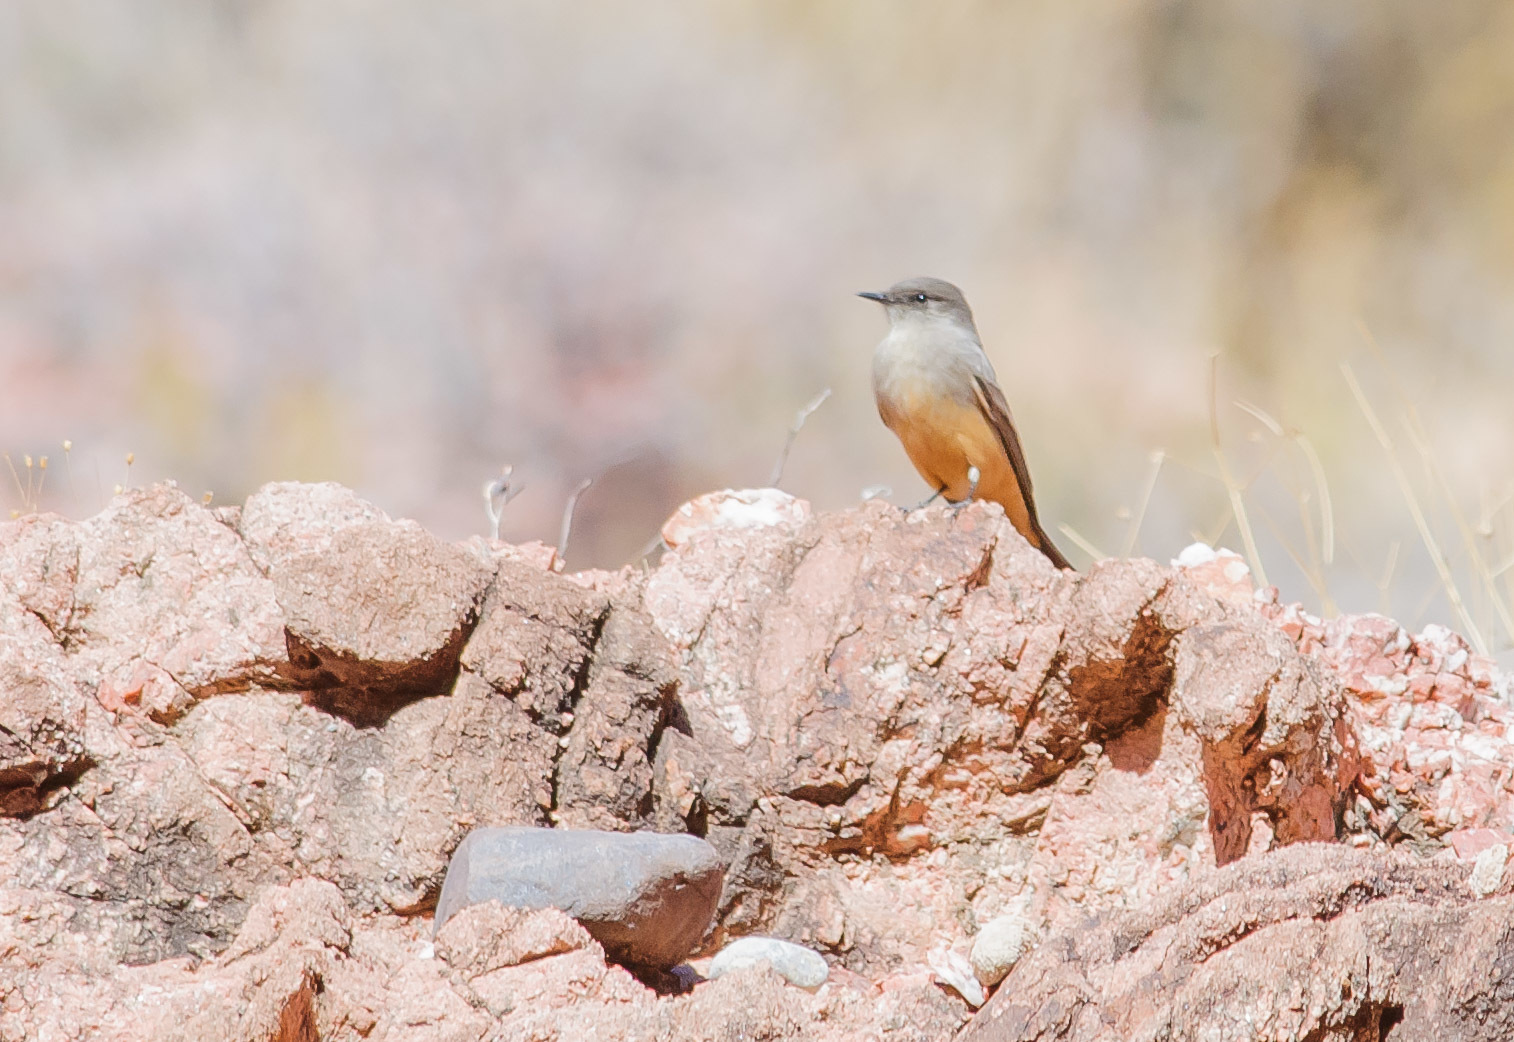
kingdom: Animalia
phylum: Chordata
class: Aves
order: Passeriformes
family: Tyrannidae
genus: Sayornis
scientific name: Sayornis saya
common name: Say's phoebe
